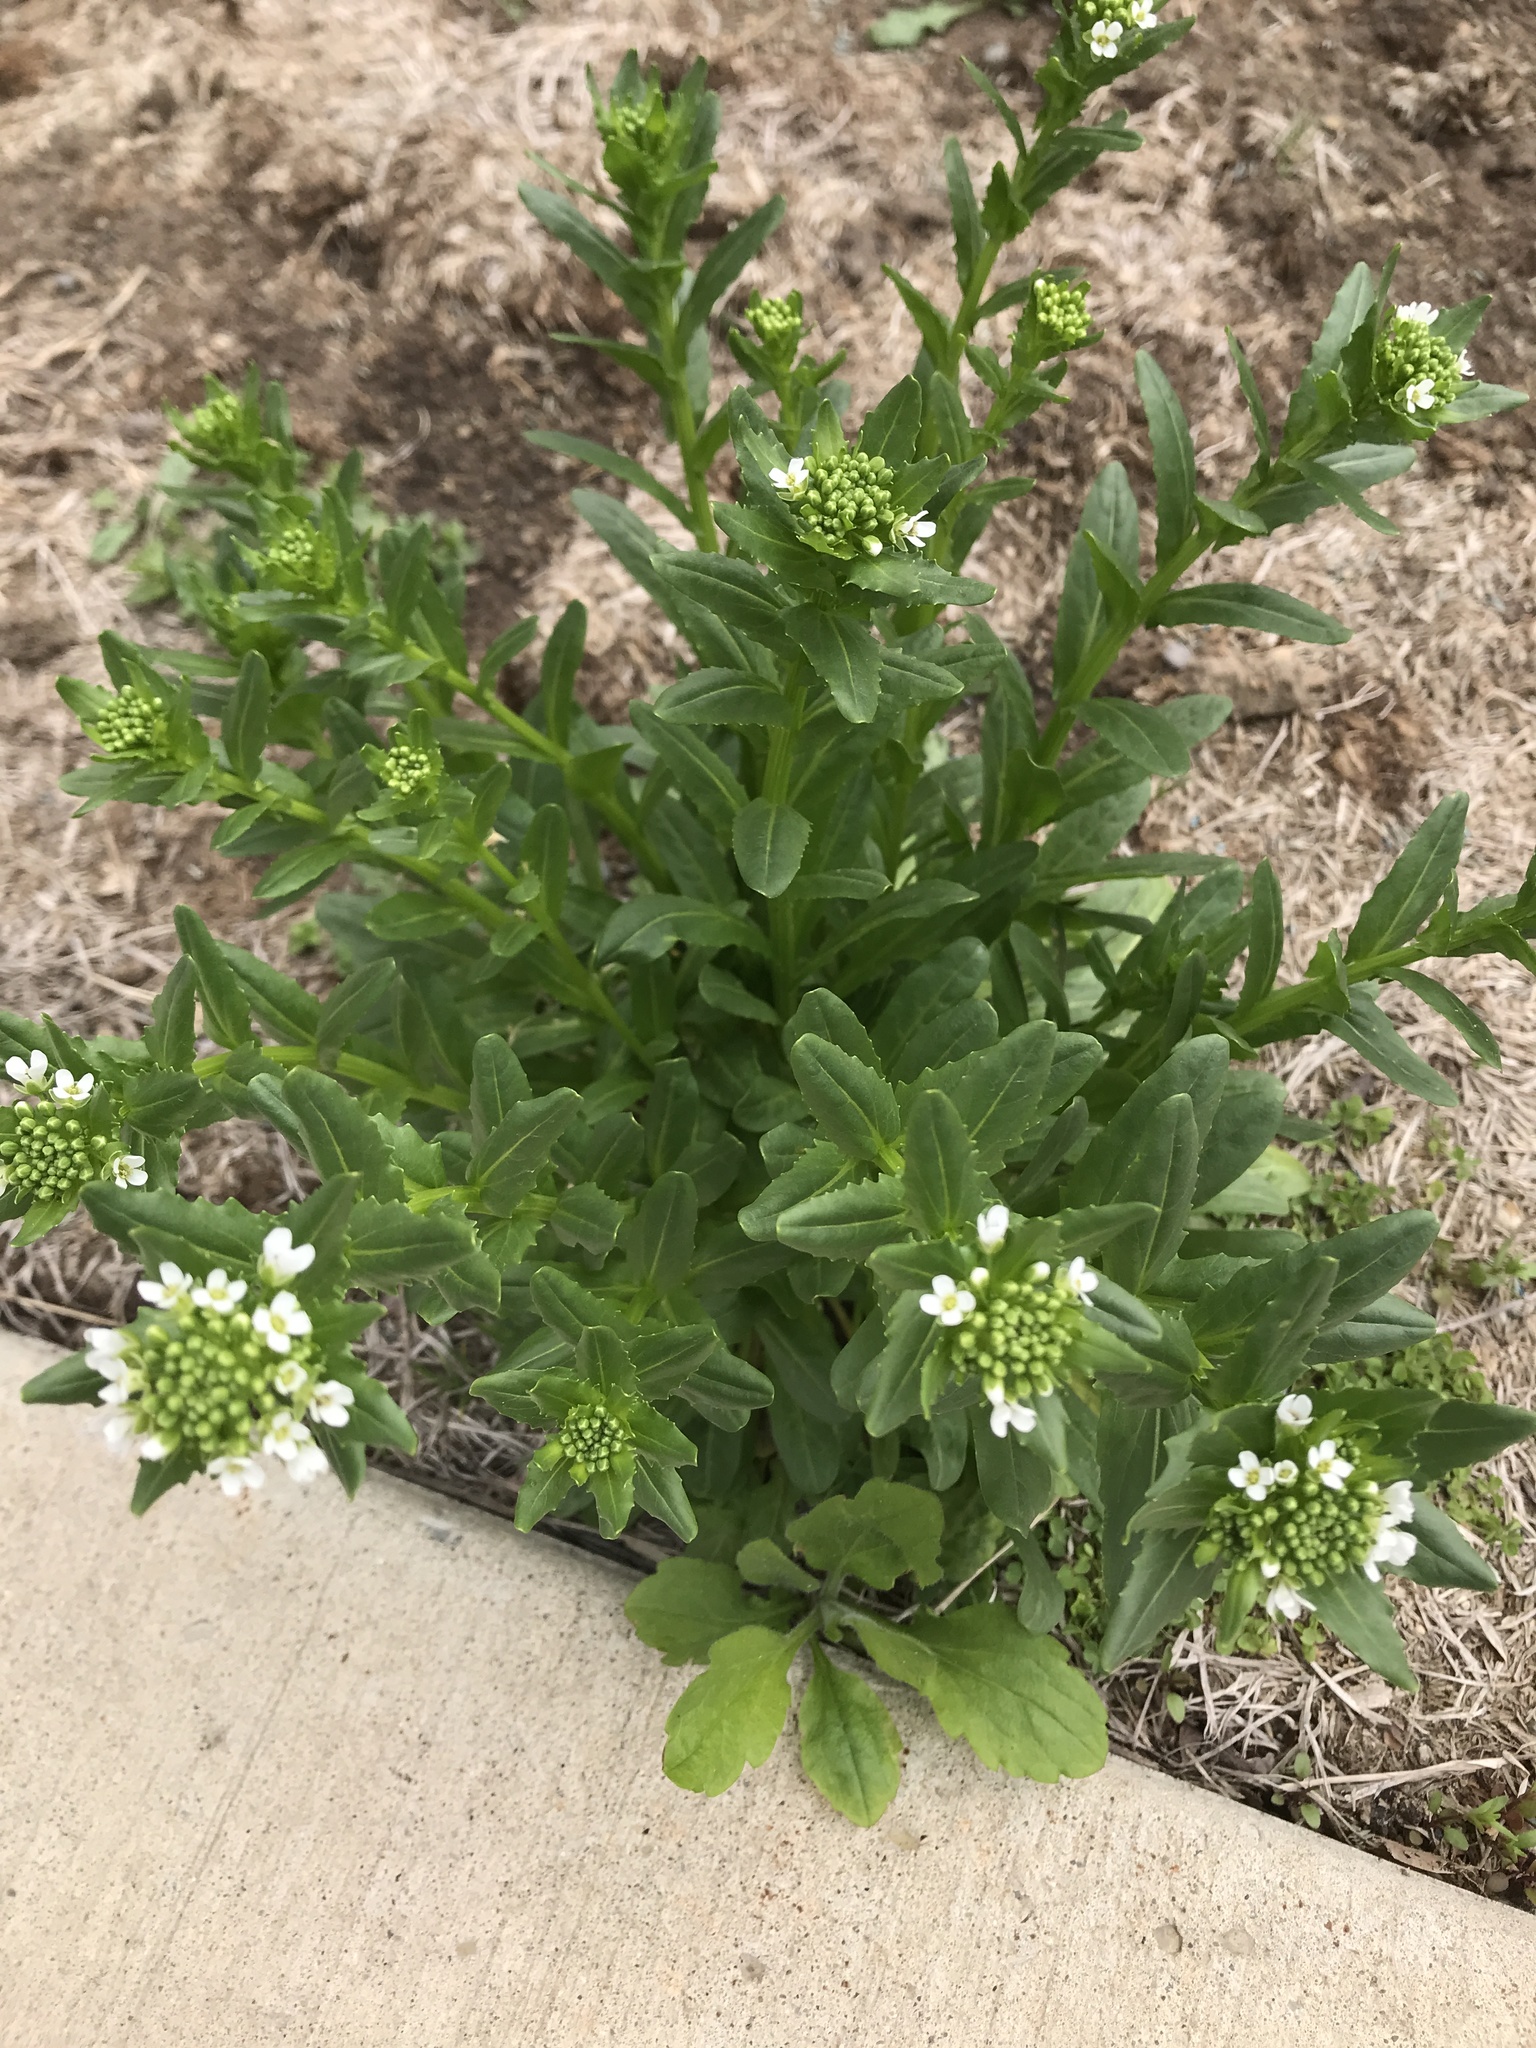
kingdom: Plantae
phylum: Tracheophyta
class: Magnoliopsida
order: Brassicales
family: Brassicaceae
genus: Thlaspi
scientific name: Thlaspi arvense
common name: Field pennycress
